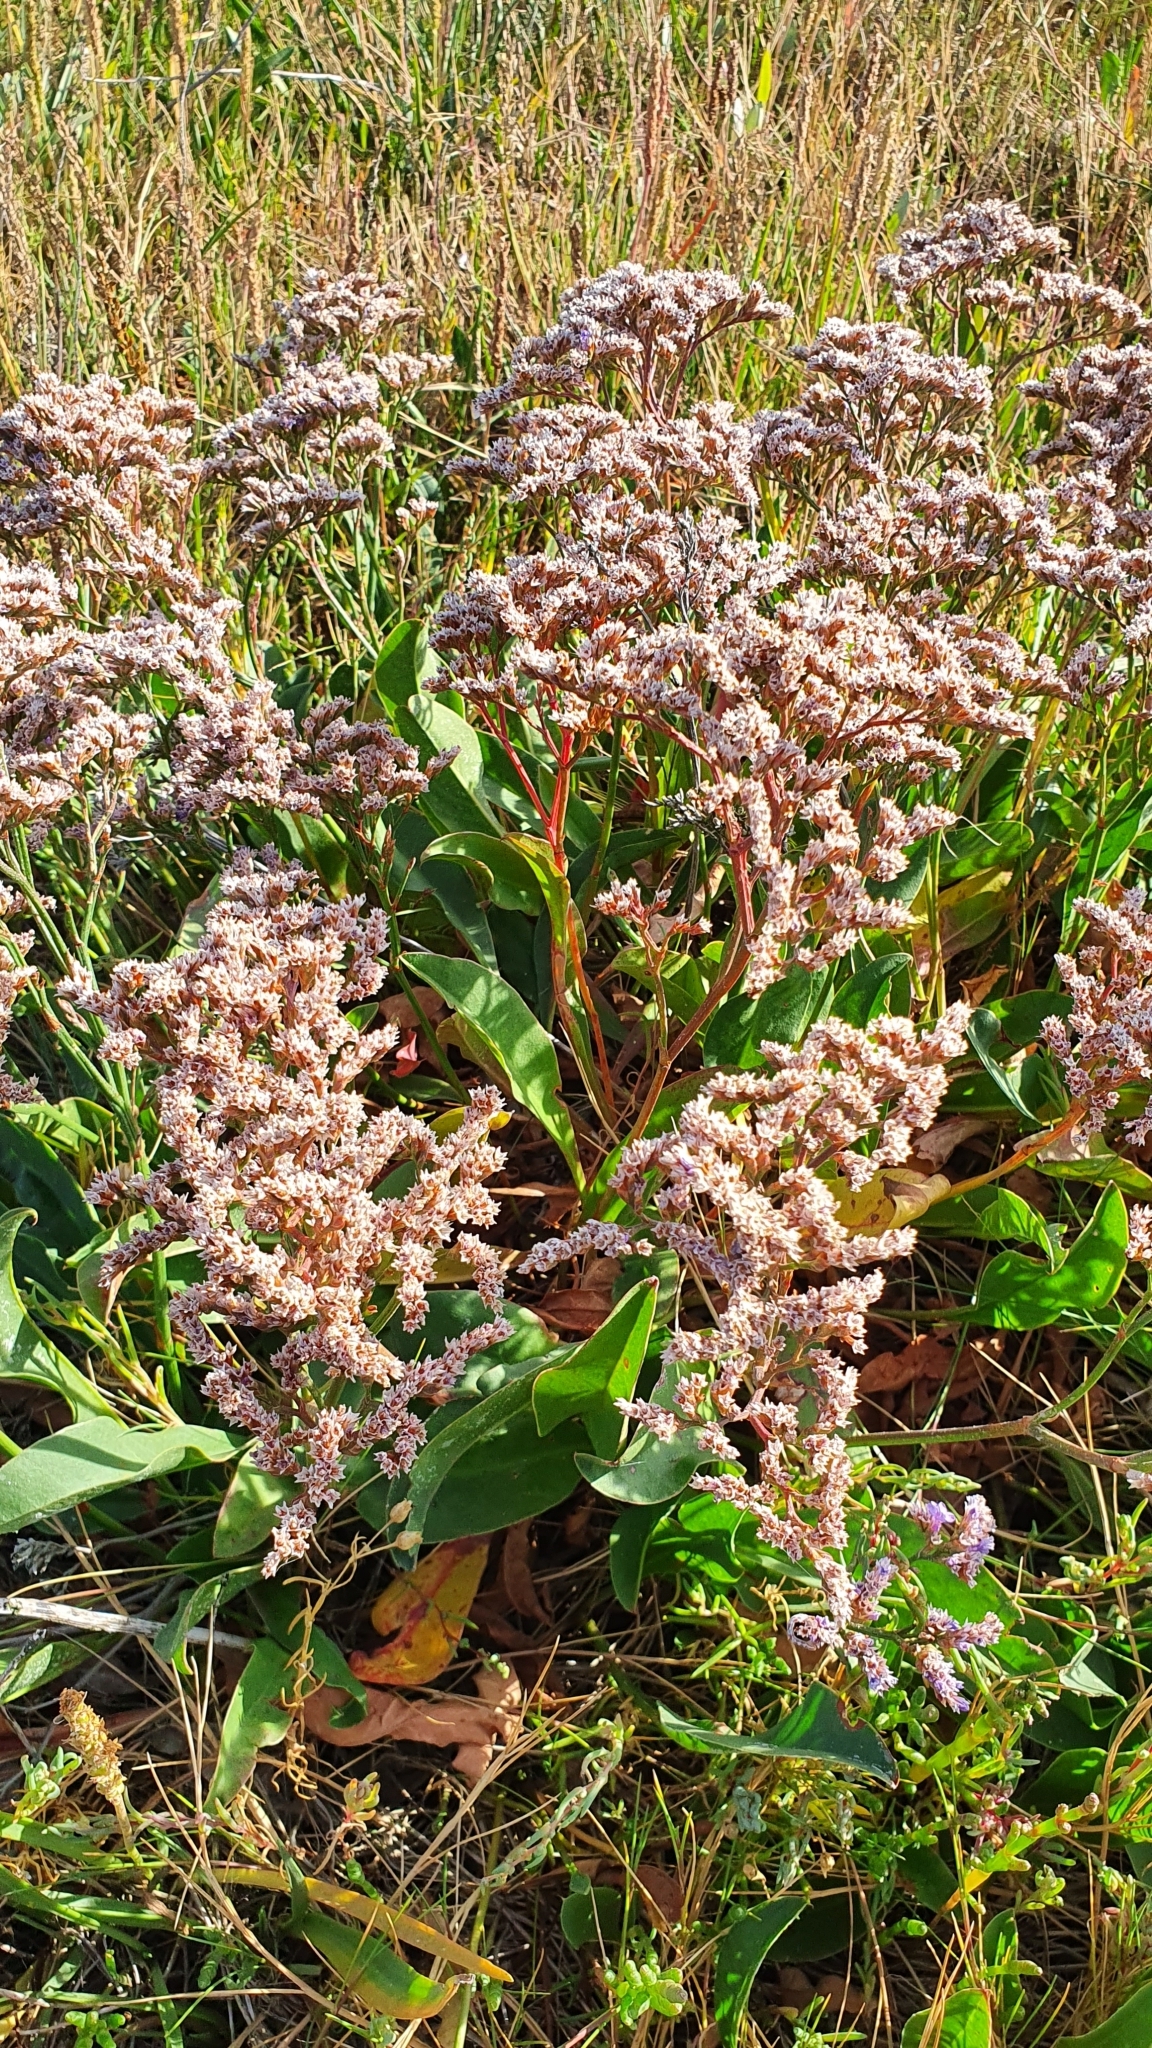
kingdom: Plantae
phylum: Tracheophyta
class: Magnoliopsida
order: Caryophyllales
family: Plumbaginaceae
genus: Limonium
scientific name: Limonium vulgare
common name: Common sea-lavender
